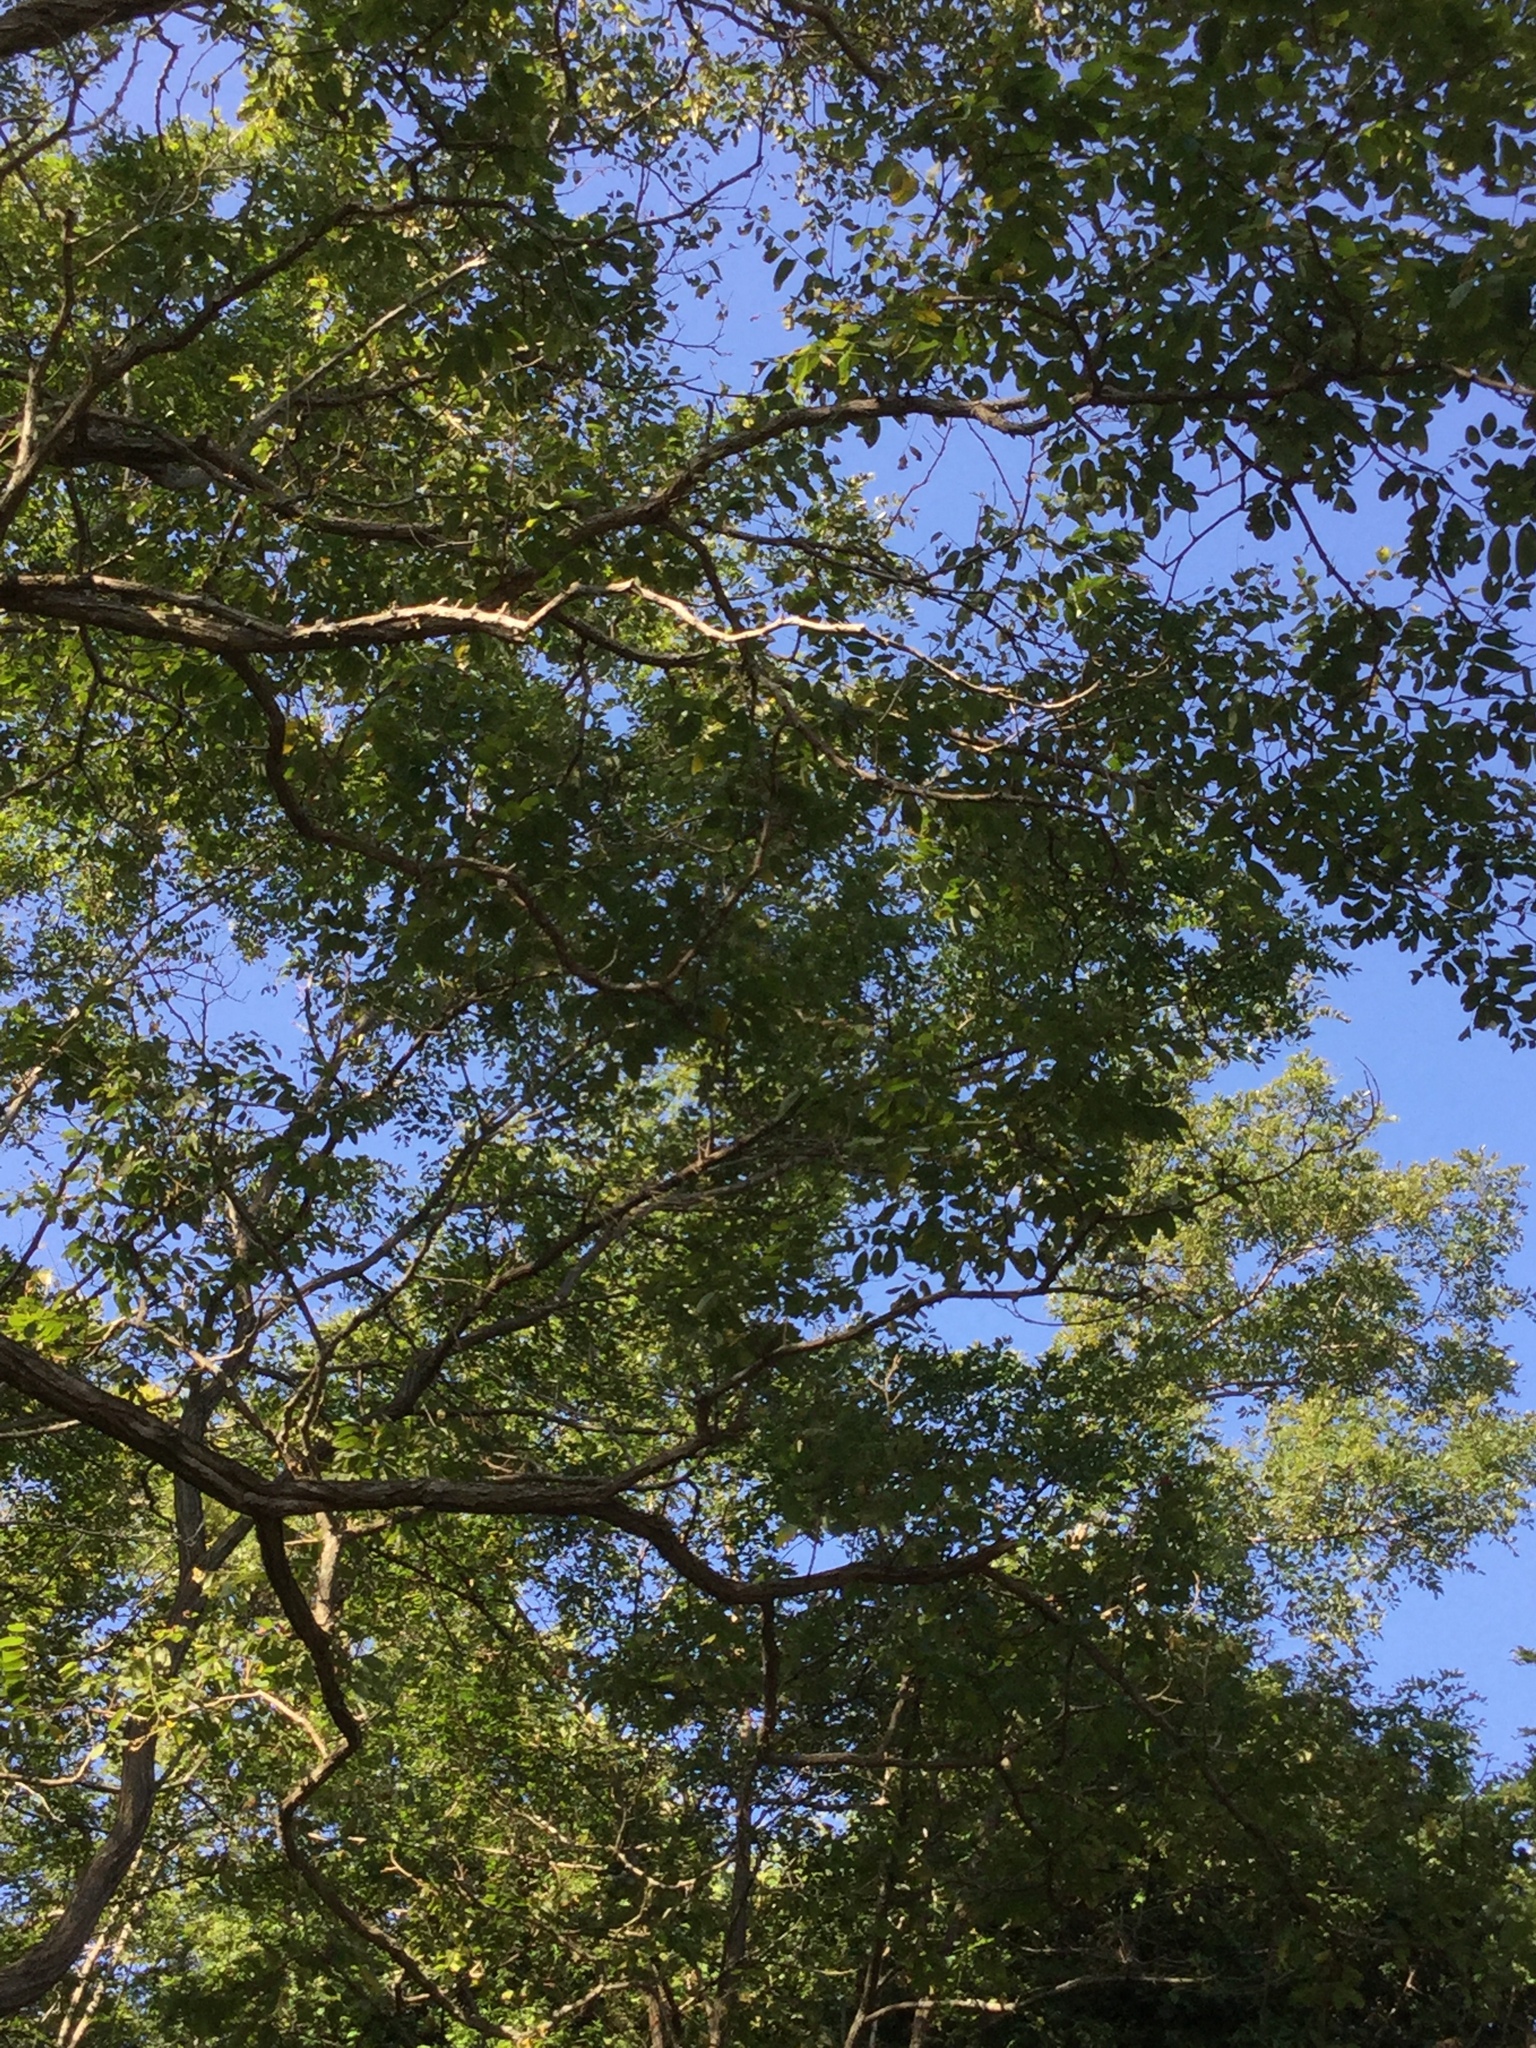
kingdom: Plantae
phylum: Tracheophyta
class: Magnoliopsida
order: Fabales
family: Fabaceae
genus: Robinia
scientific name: Robinia pseudoacacia
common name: Black locust
